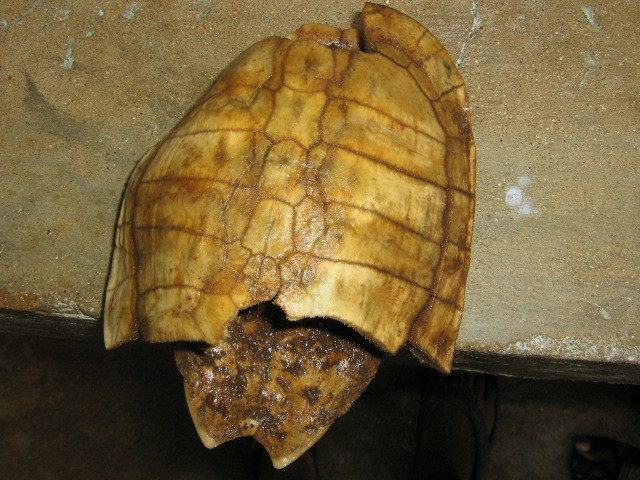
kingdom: Animalia
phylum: Chordata
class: Testudines
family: Geoemydidae
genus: Melanochelys
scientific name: Melanochelys trijuga
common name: Indian black turtle
